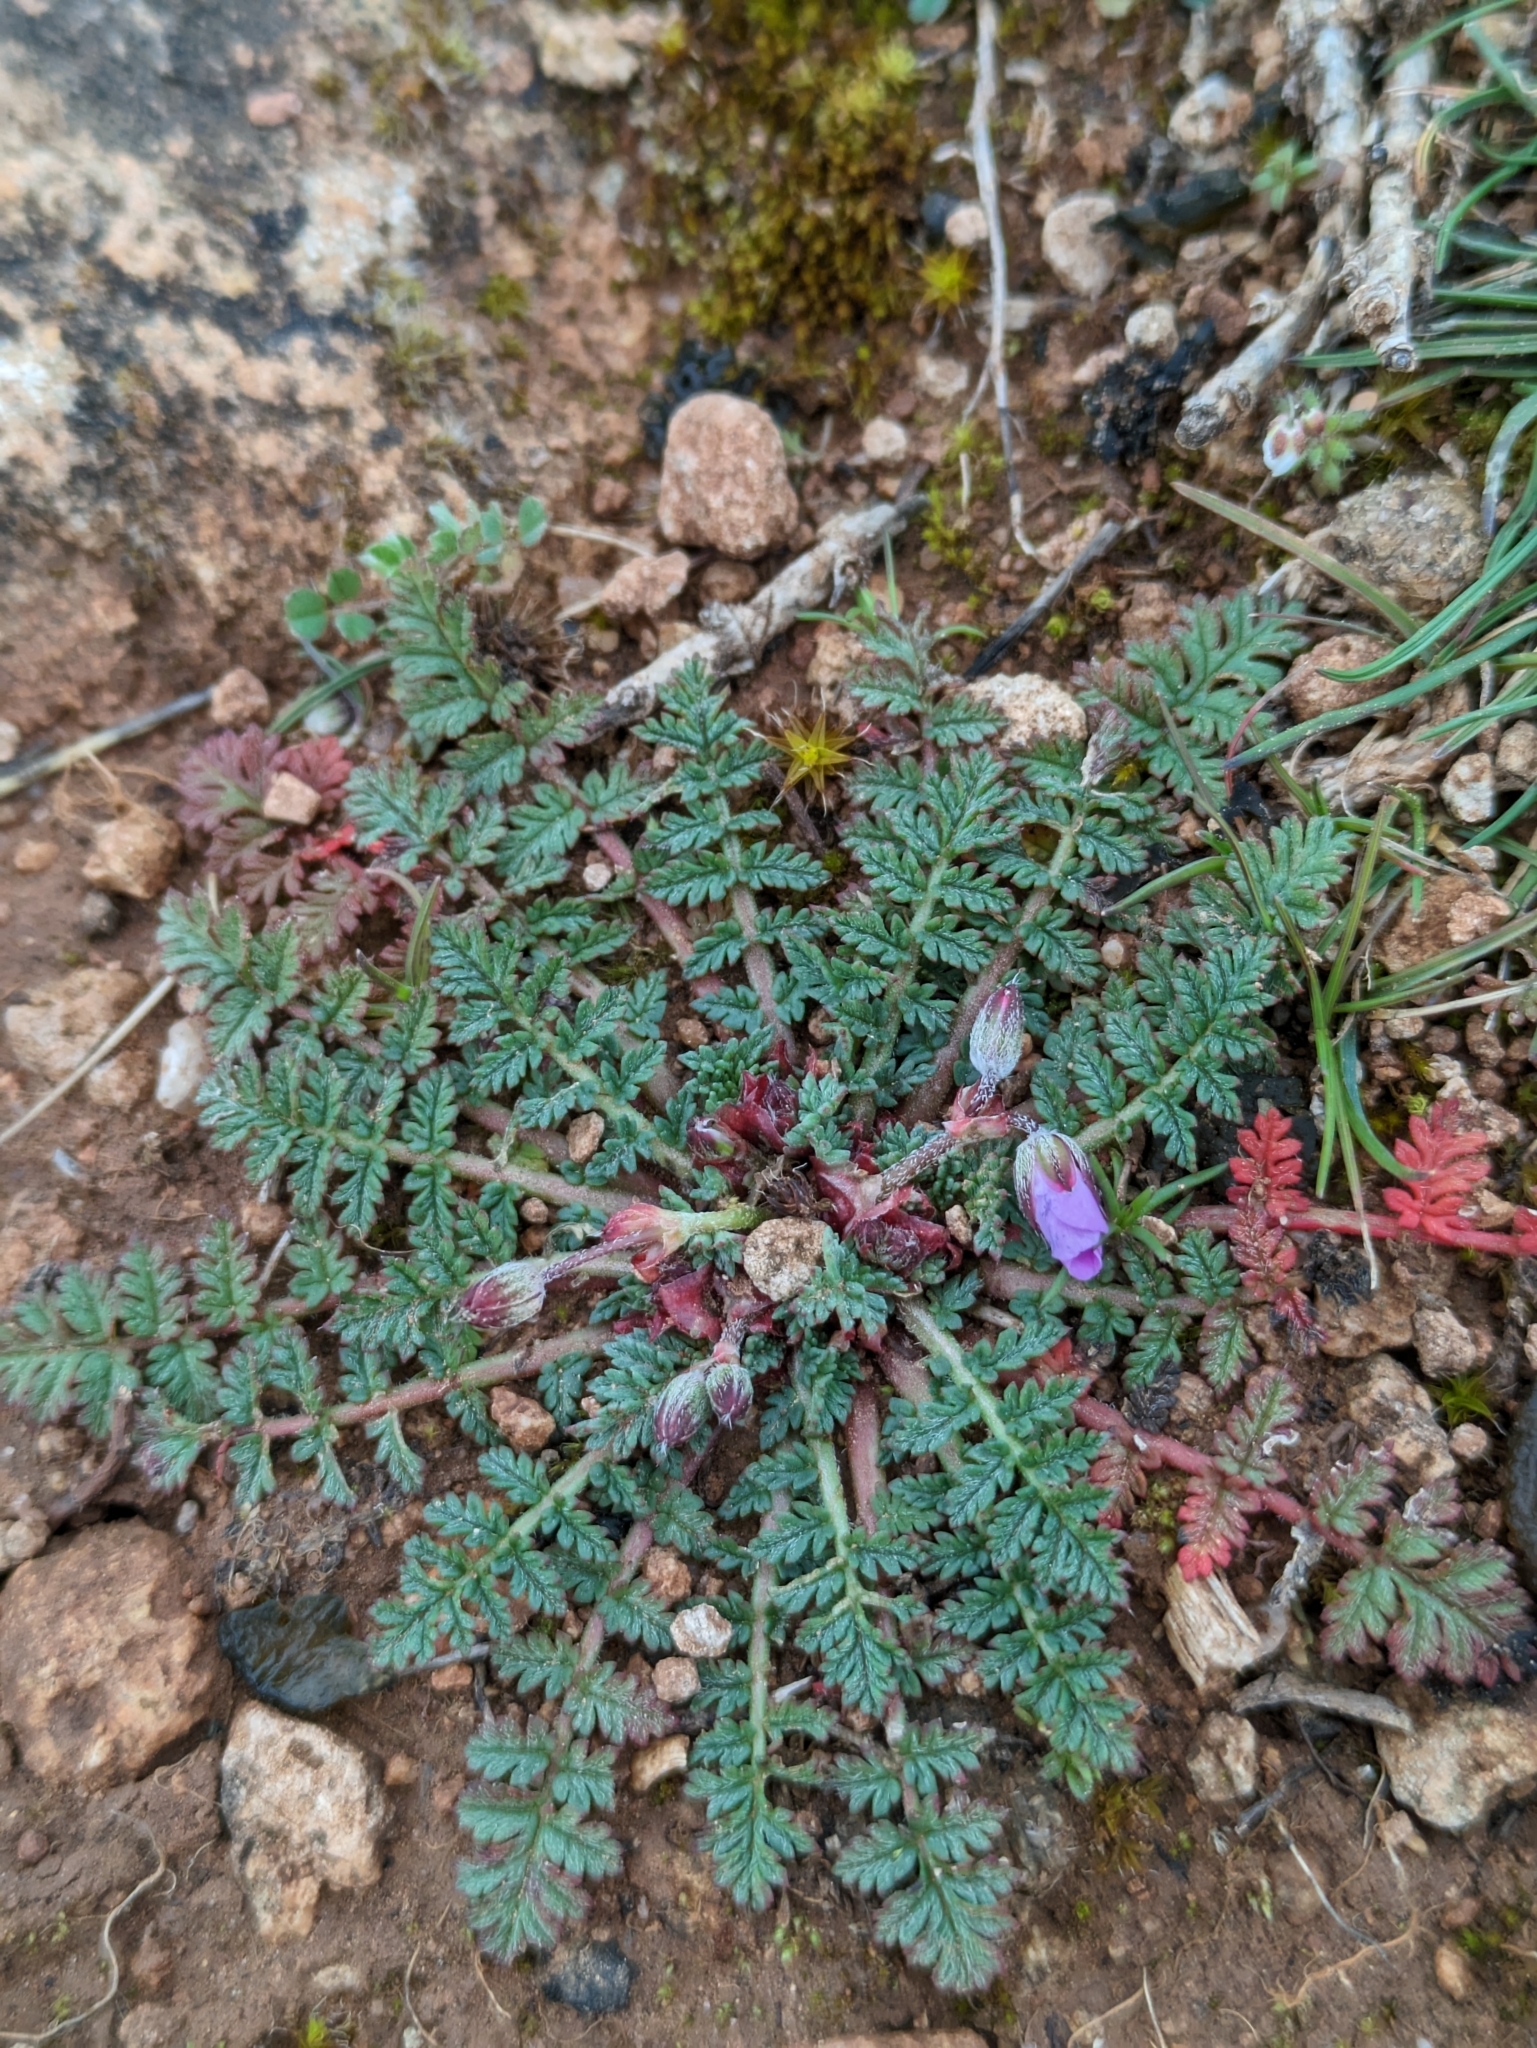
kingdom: Plantae
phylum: Tracheophyta
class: Magnoliopsida
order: Geraniales
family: Geraniaceae
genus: Erodium
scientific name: Erodium cicutarium
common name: Common stork's-bill
